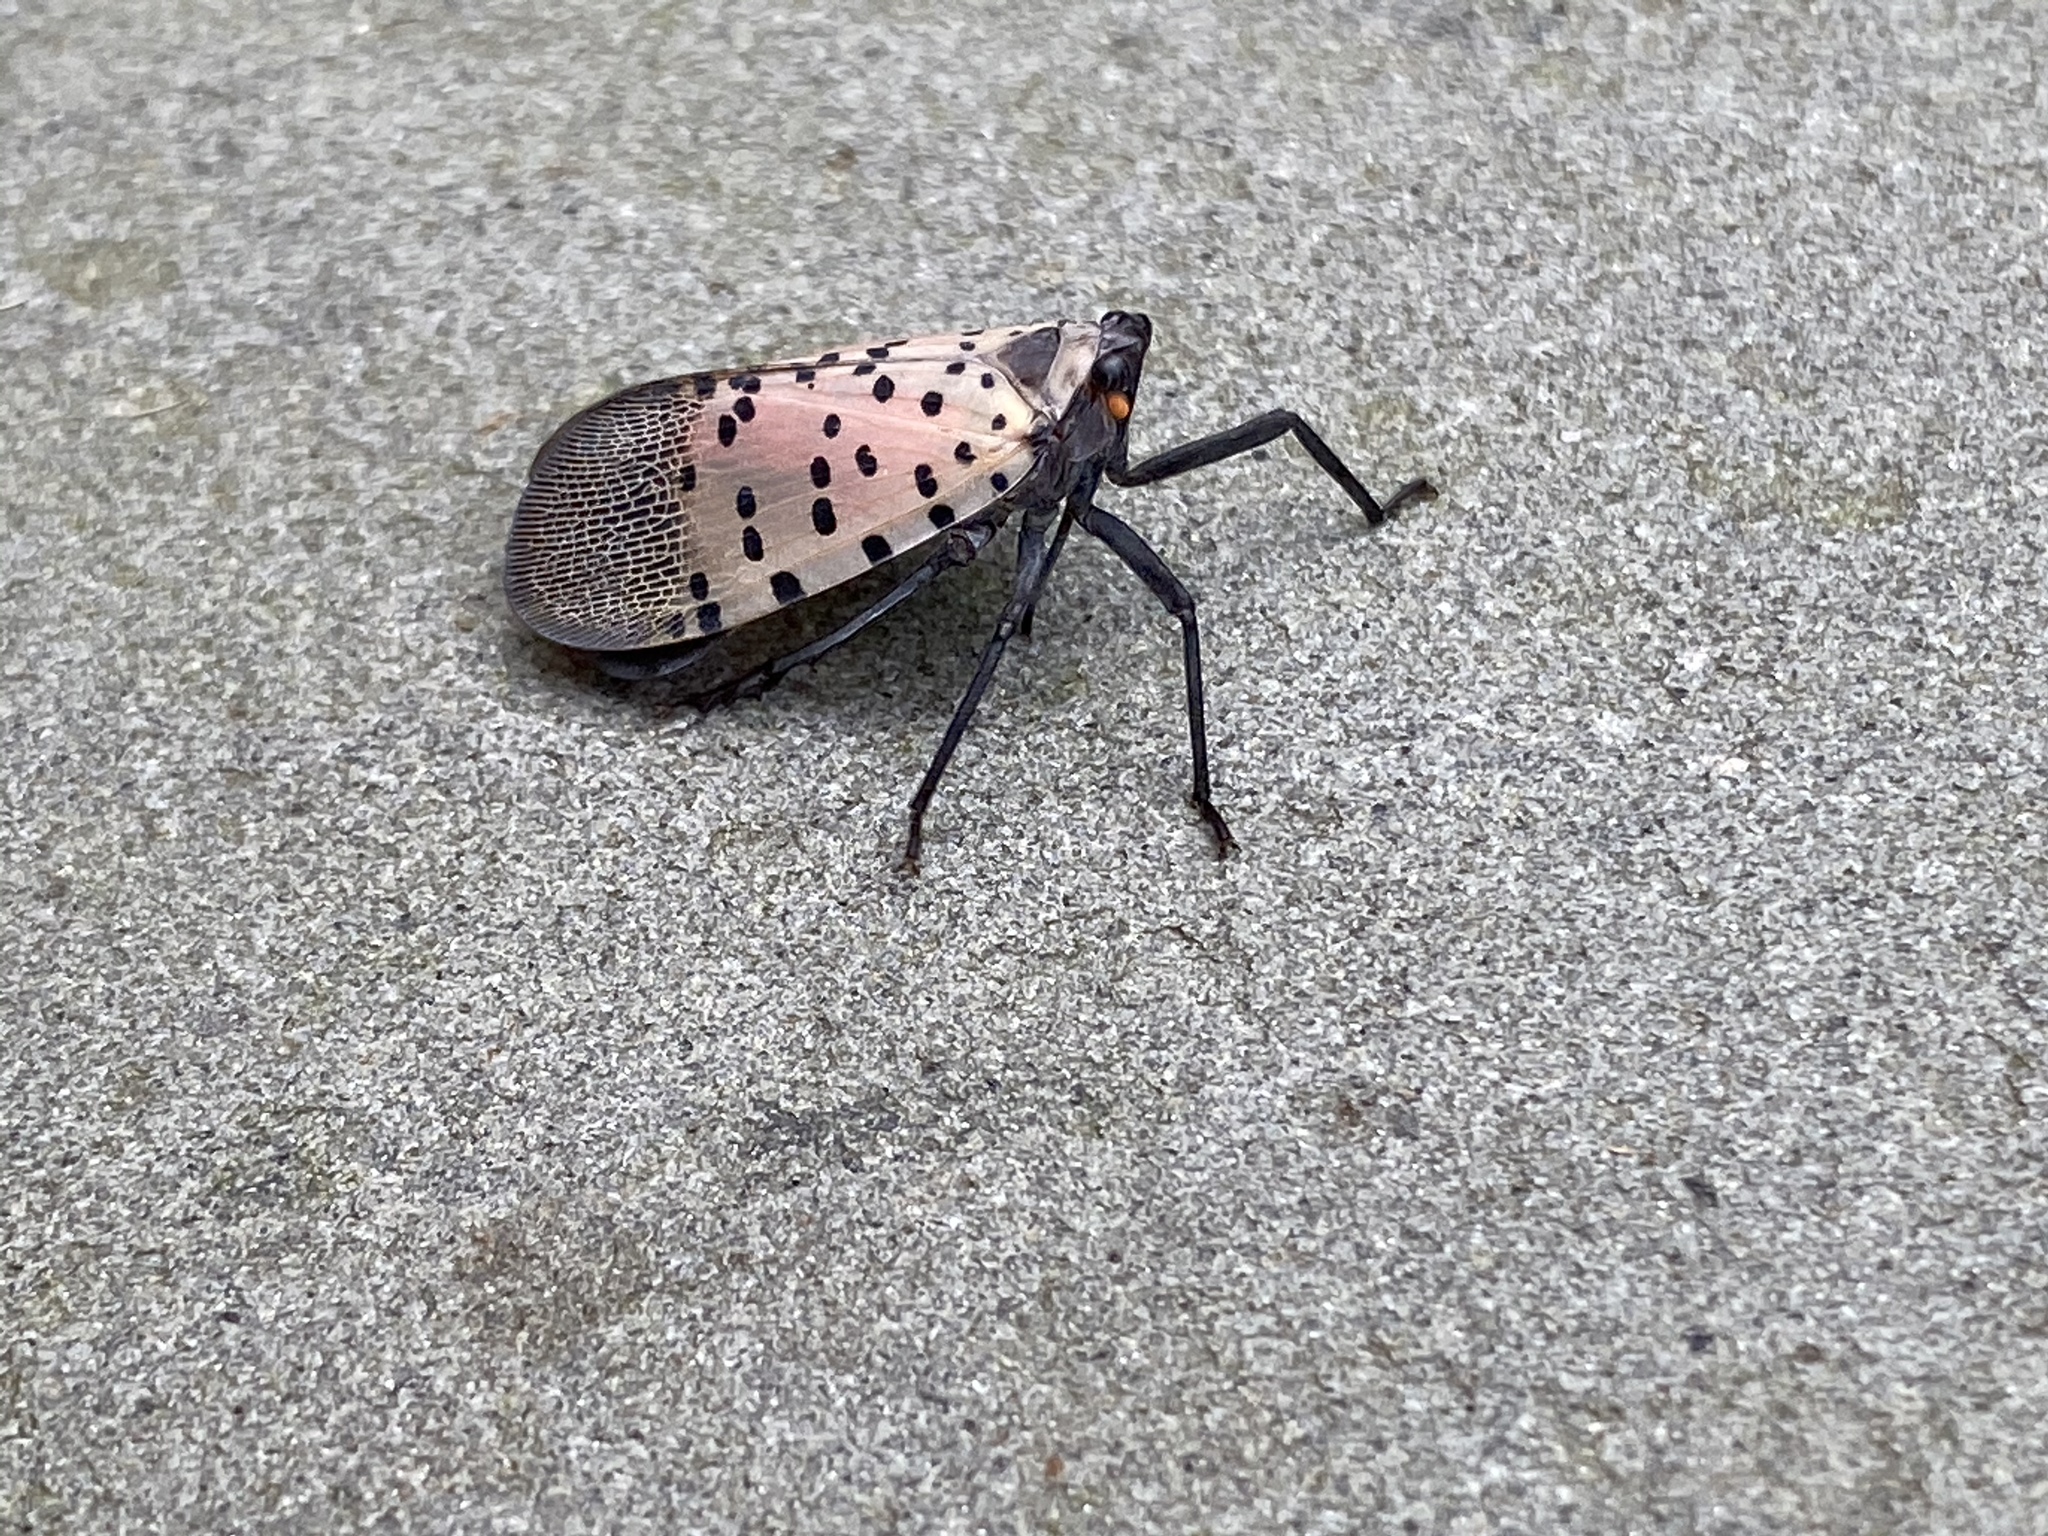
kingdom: Animalia
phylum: Arthropoda
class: Insecta
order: Hemiptera
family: Fulgoridae
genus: Lycorma
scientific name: Lycorma delicatula
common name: Spotted lanternfly
